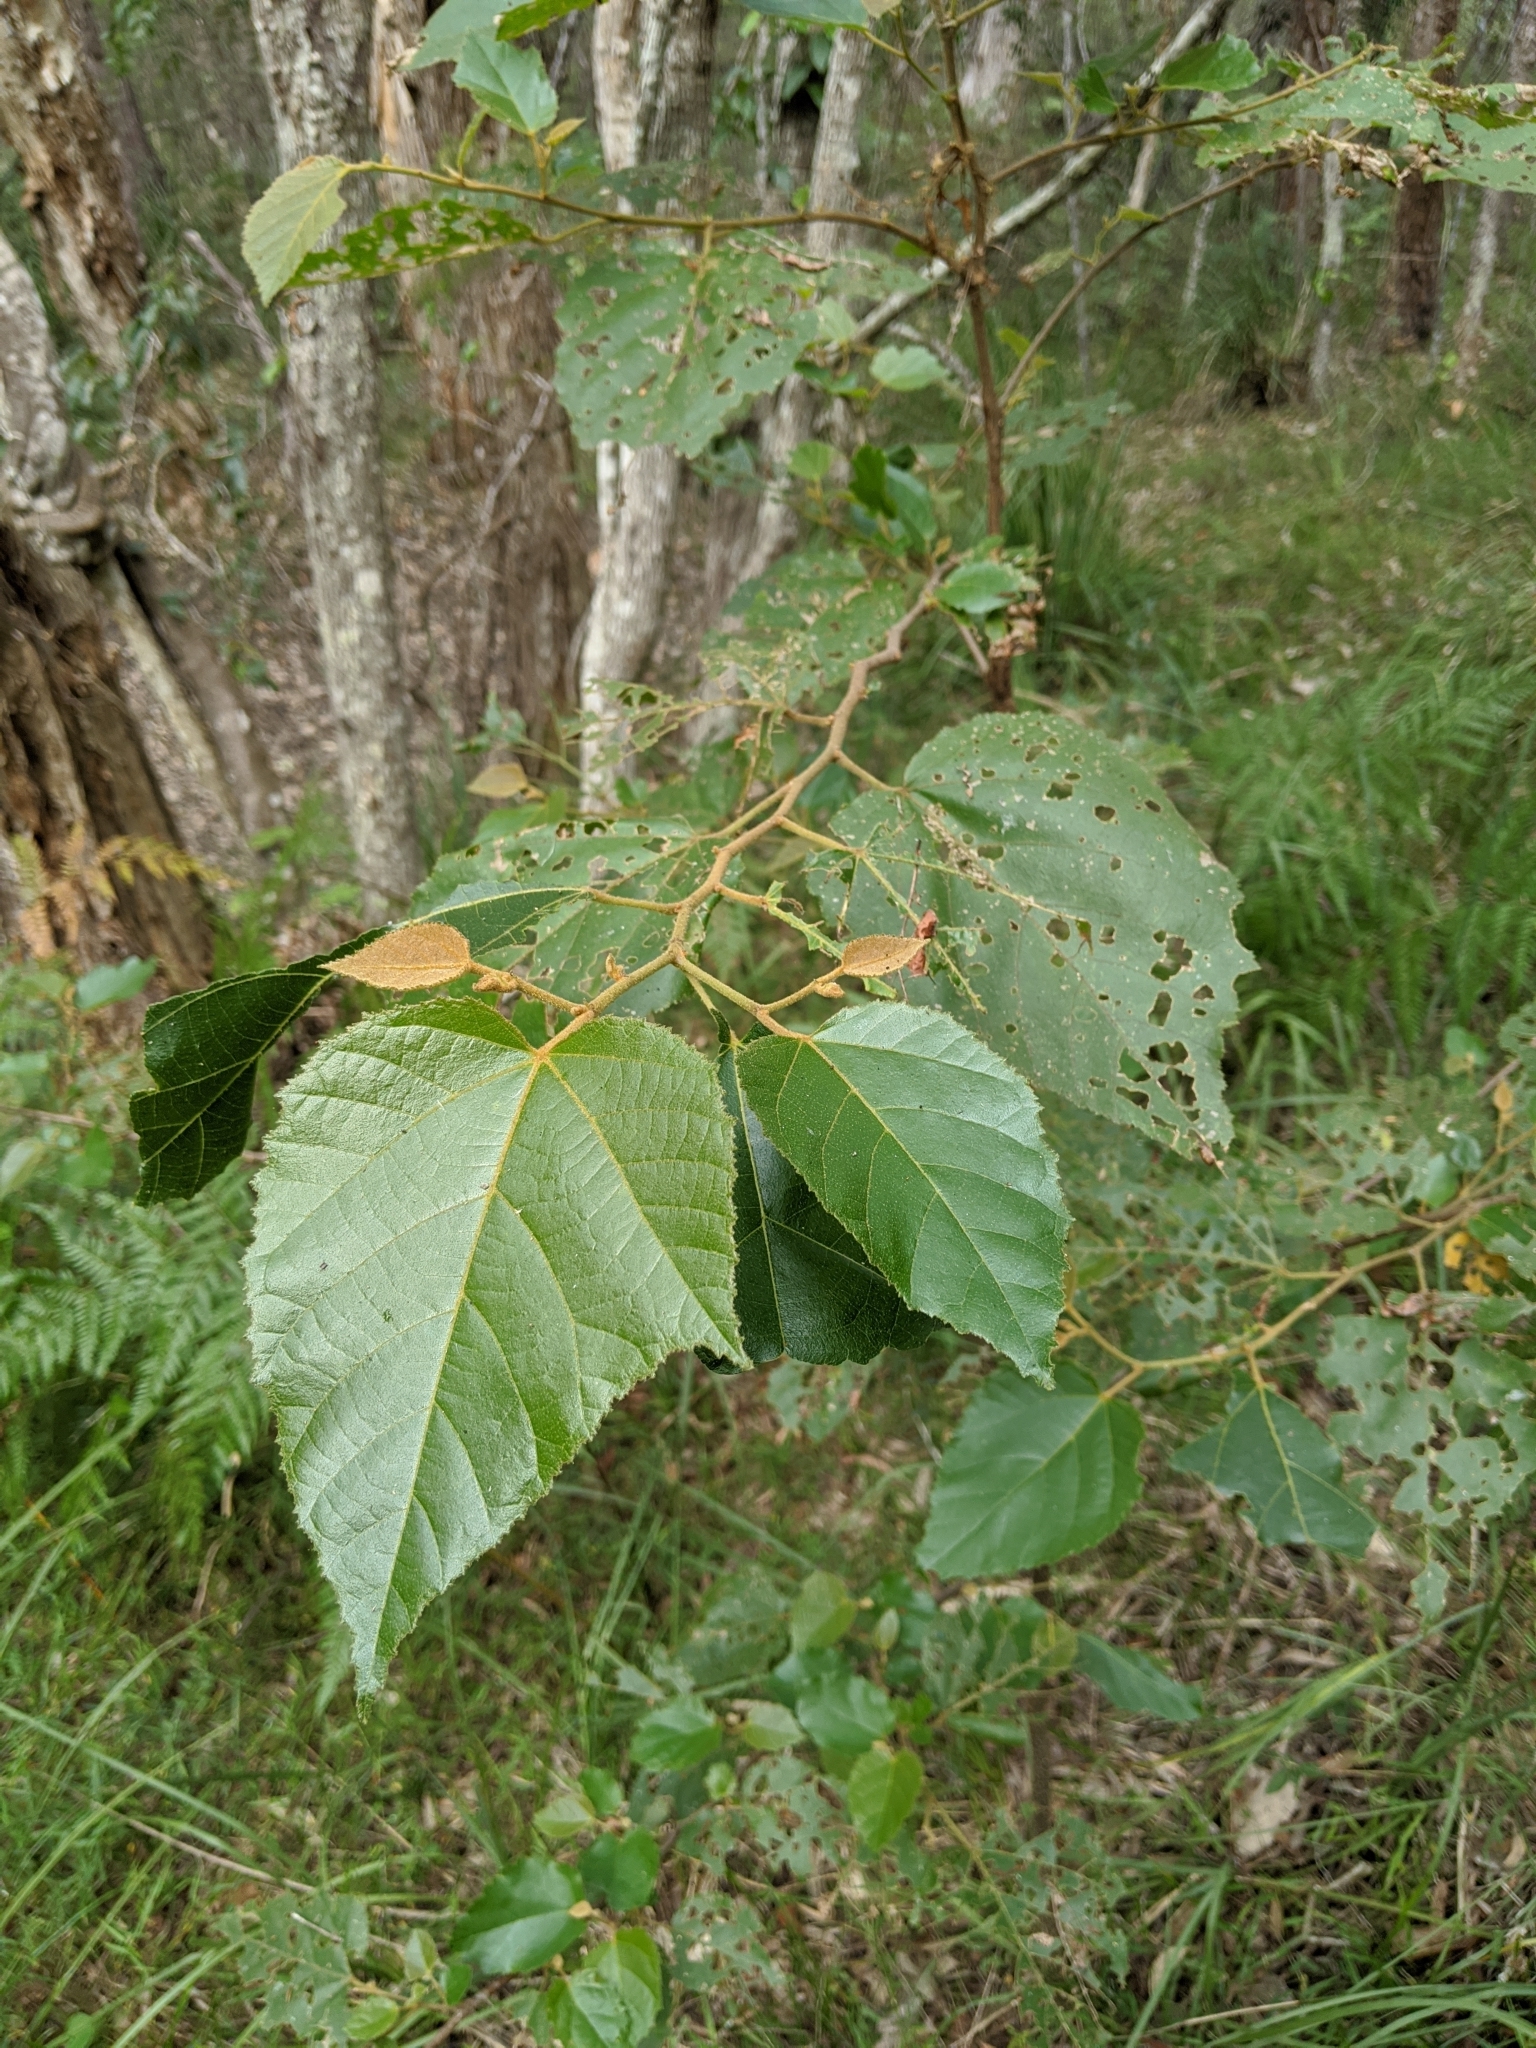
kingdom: Plantae
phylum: Tracheophyta
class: Magnoliopsida
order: Malvales
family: Malvaceae
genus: Commersonia
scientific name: Commersonia bartramia
